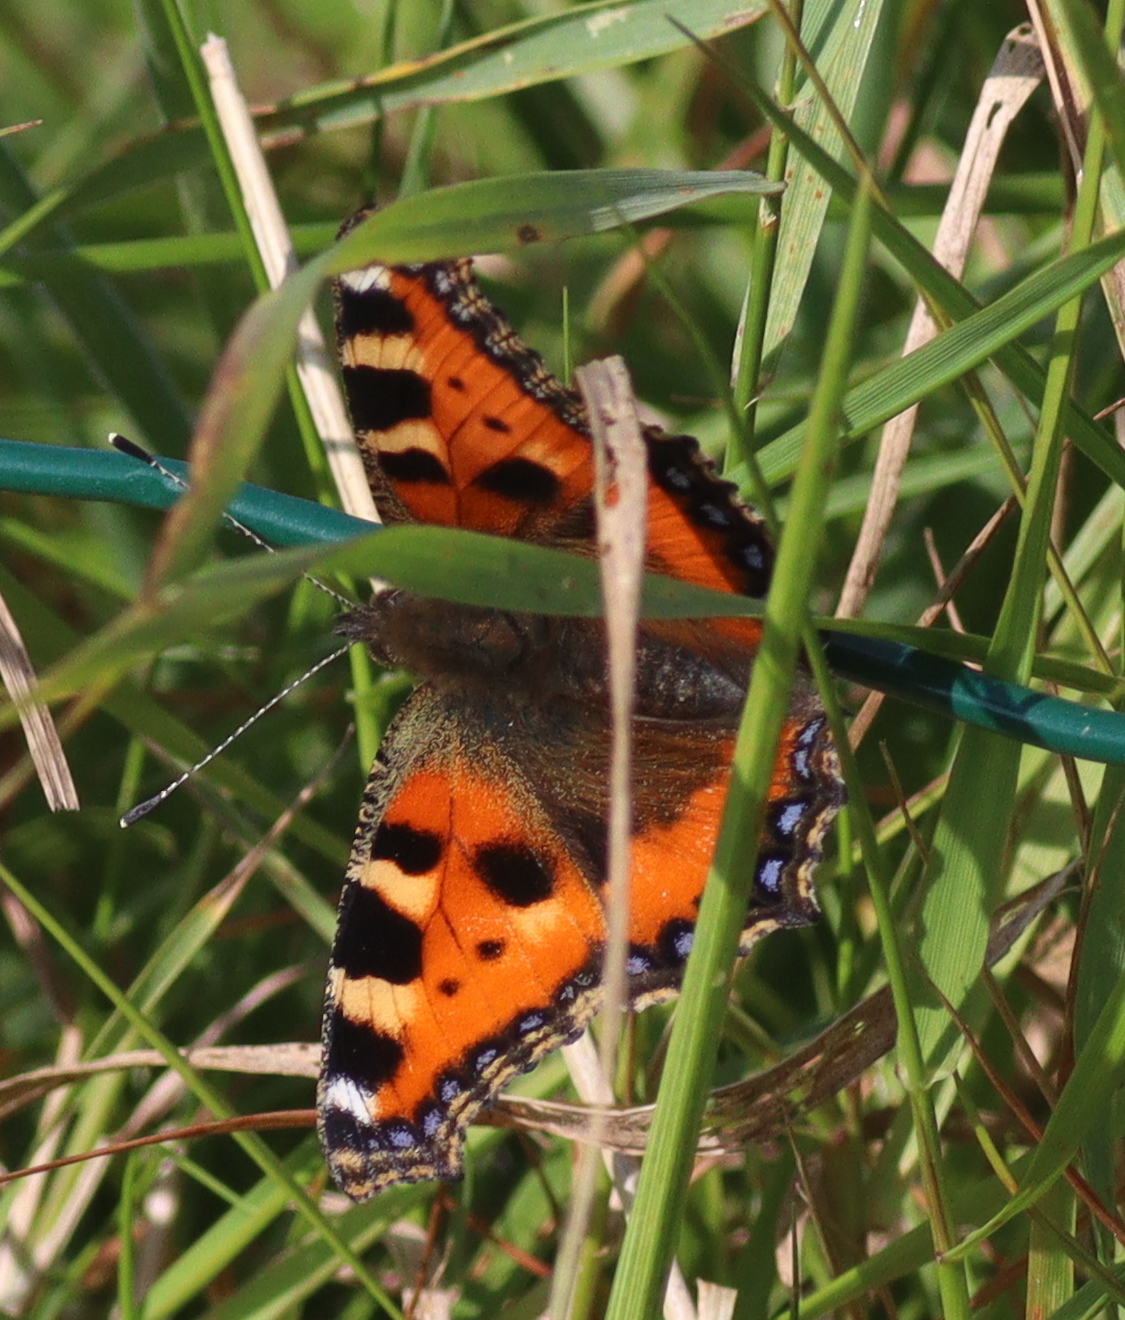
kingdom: Animalia
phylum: Arthropoda
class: Insecta
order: Lepidoptera
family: Nymphalidae
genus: Aglais
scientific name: Aglais urticae
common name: Small tortoiseshell
